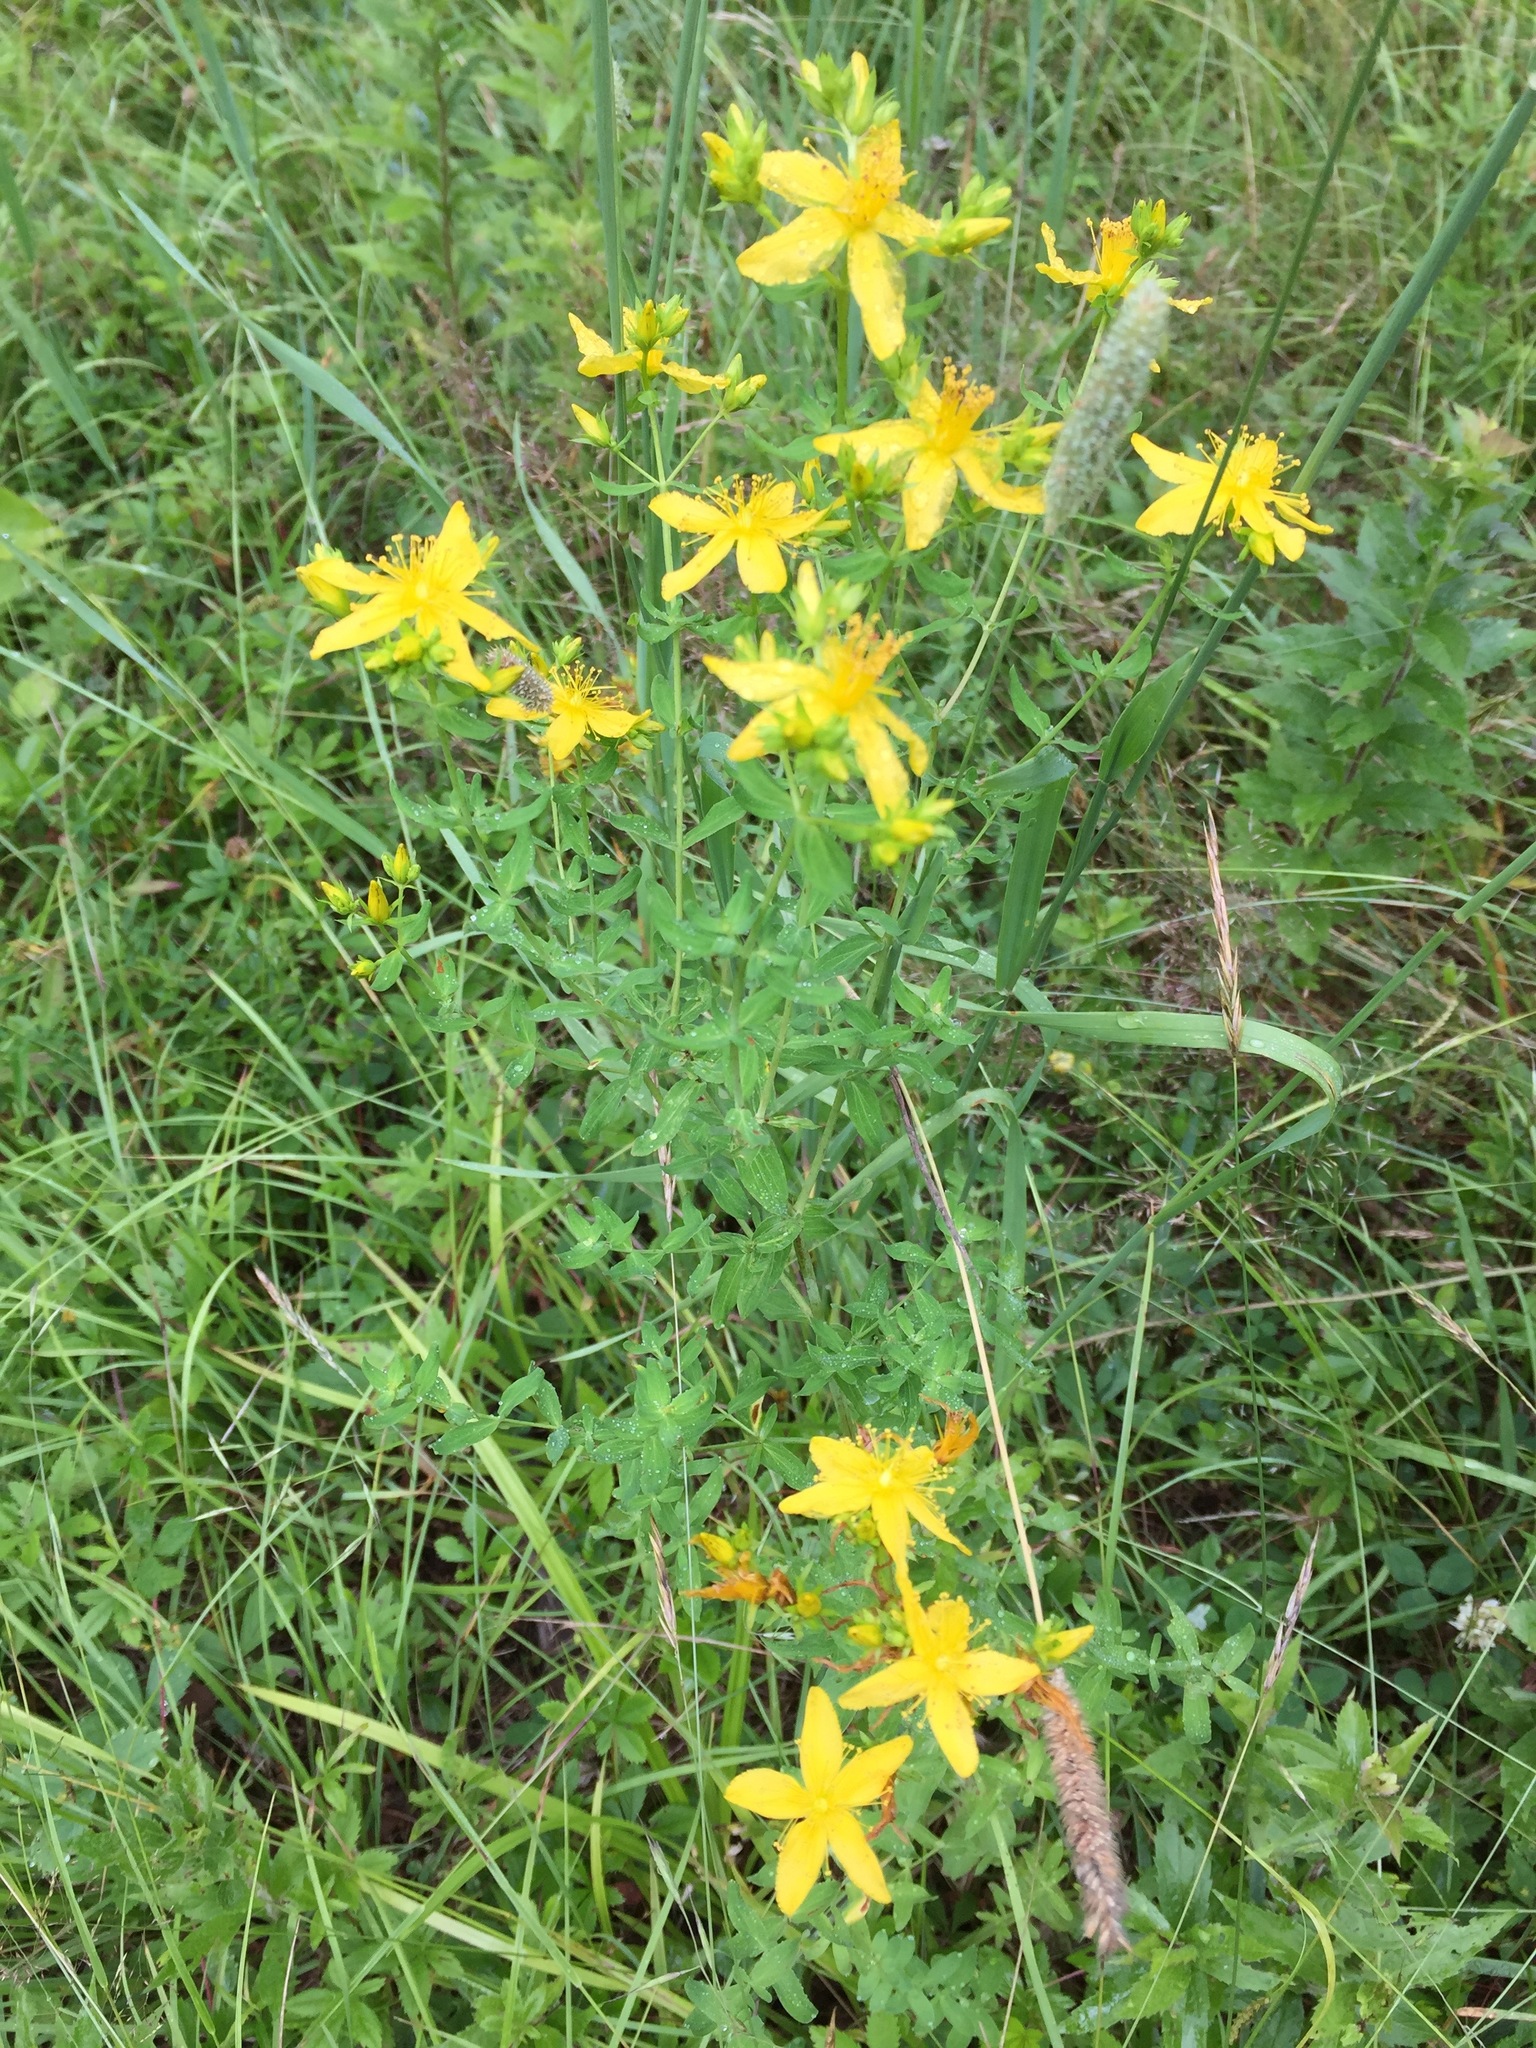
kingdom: Plantae
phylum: Tracheophyta
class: Magnoliopsida
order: Malpighiales
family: Hypericaceae
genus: Hypericum
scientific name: Hypericum perforatum
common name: Common st. johnswort
